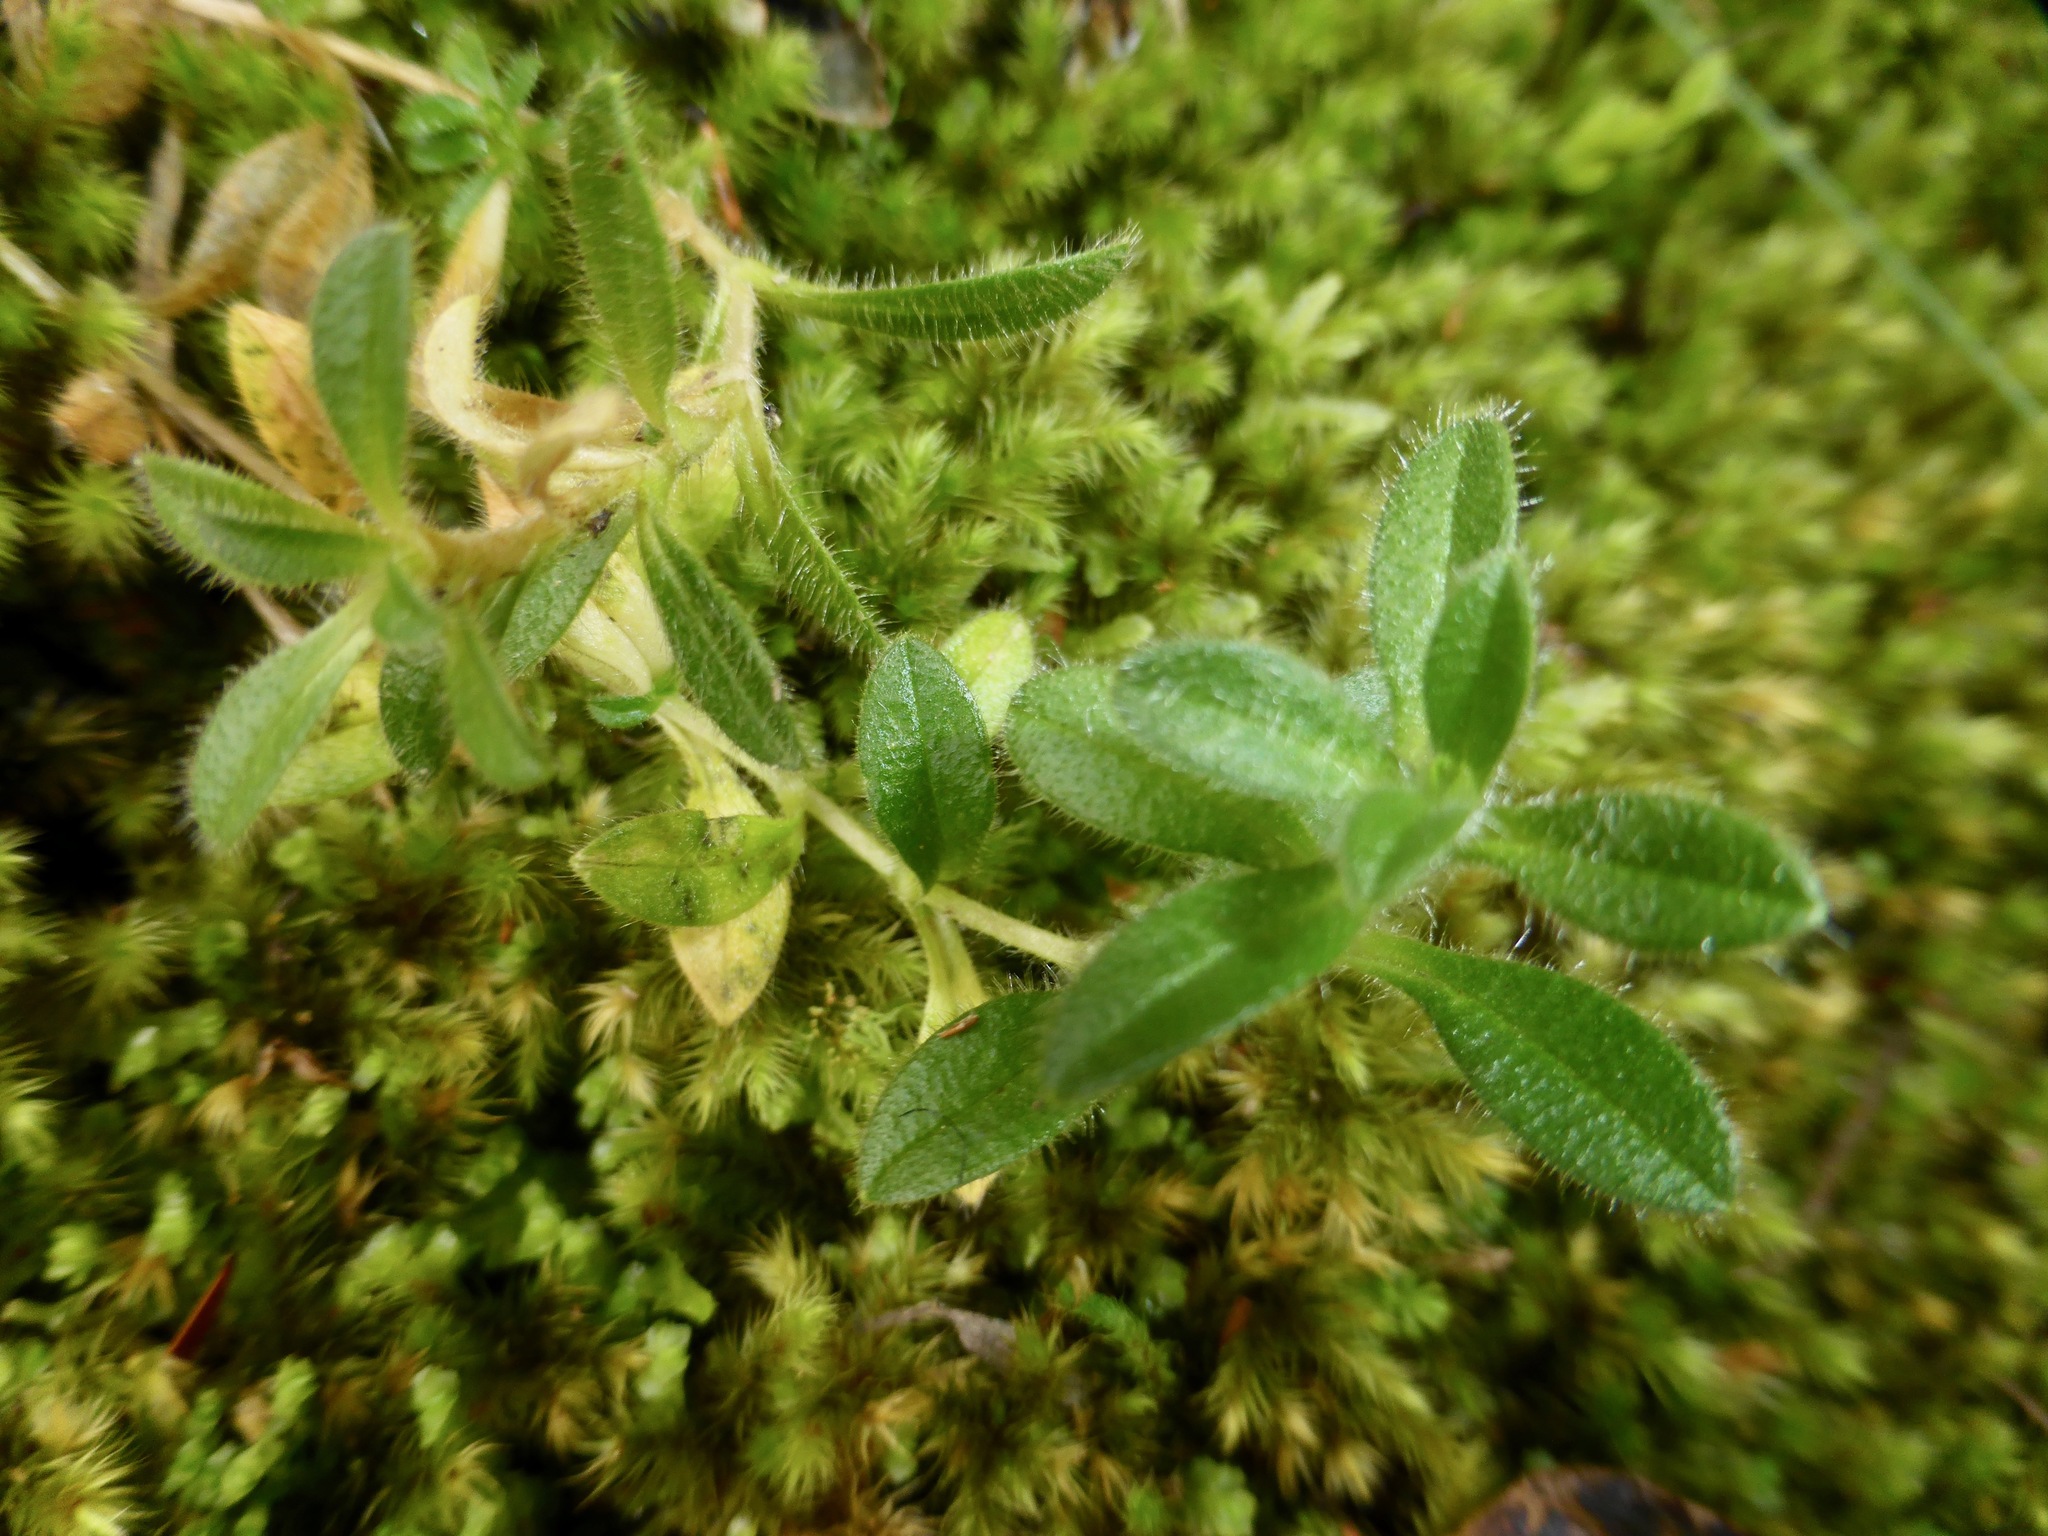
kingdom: Plantae
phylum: Tracheophyta
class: Magnoliopsida
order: Caryophyllales
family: Caryophyllaceae
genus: Cerastium
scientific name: Cerastium fontanum
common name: Common mouse-ear
